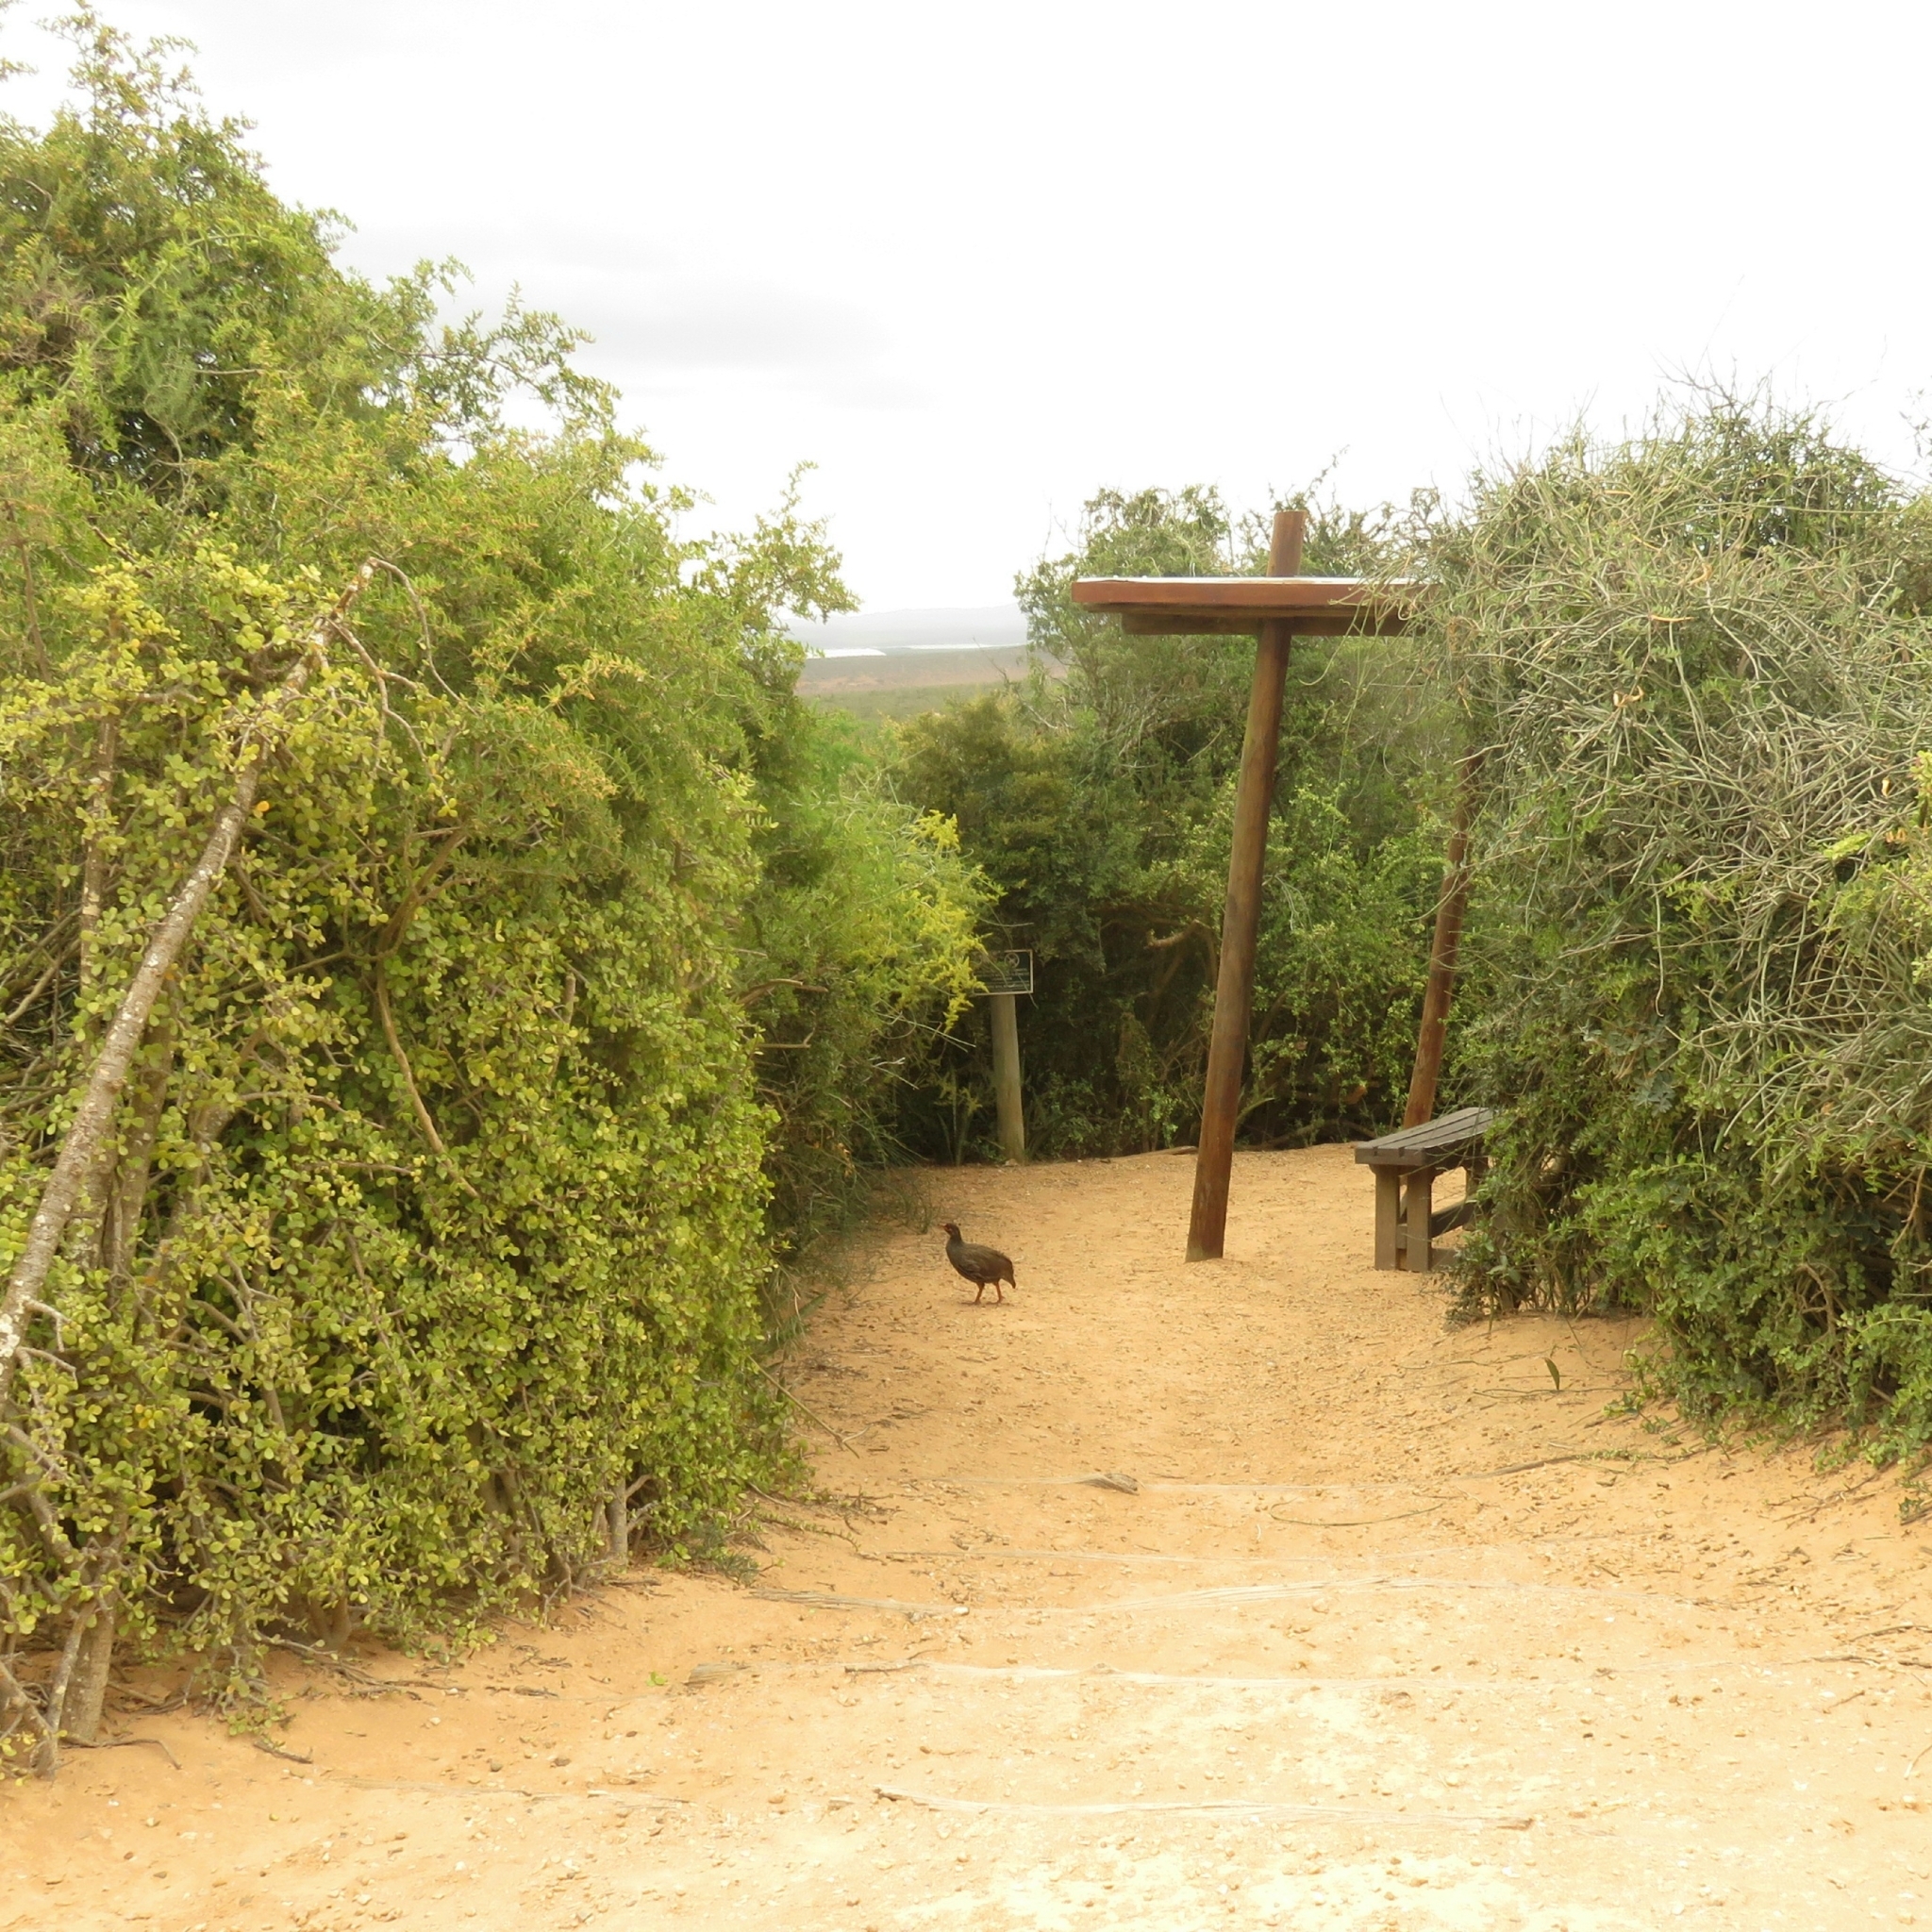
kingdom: Animalia
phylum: Chordata
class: Aves
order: Galliformes
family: Phasianidae
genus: Pternistis
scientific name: Pternistis afer
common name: Red-necked spurfowl
